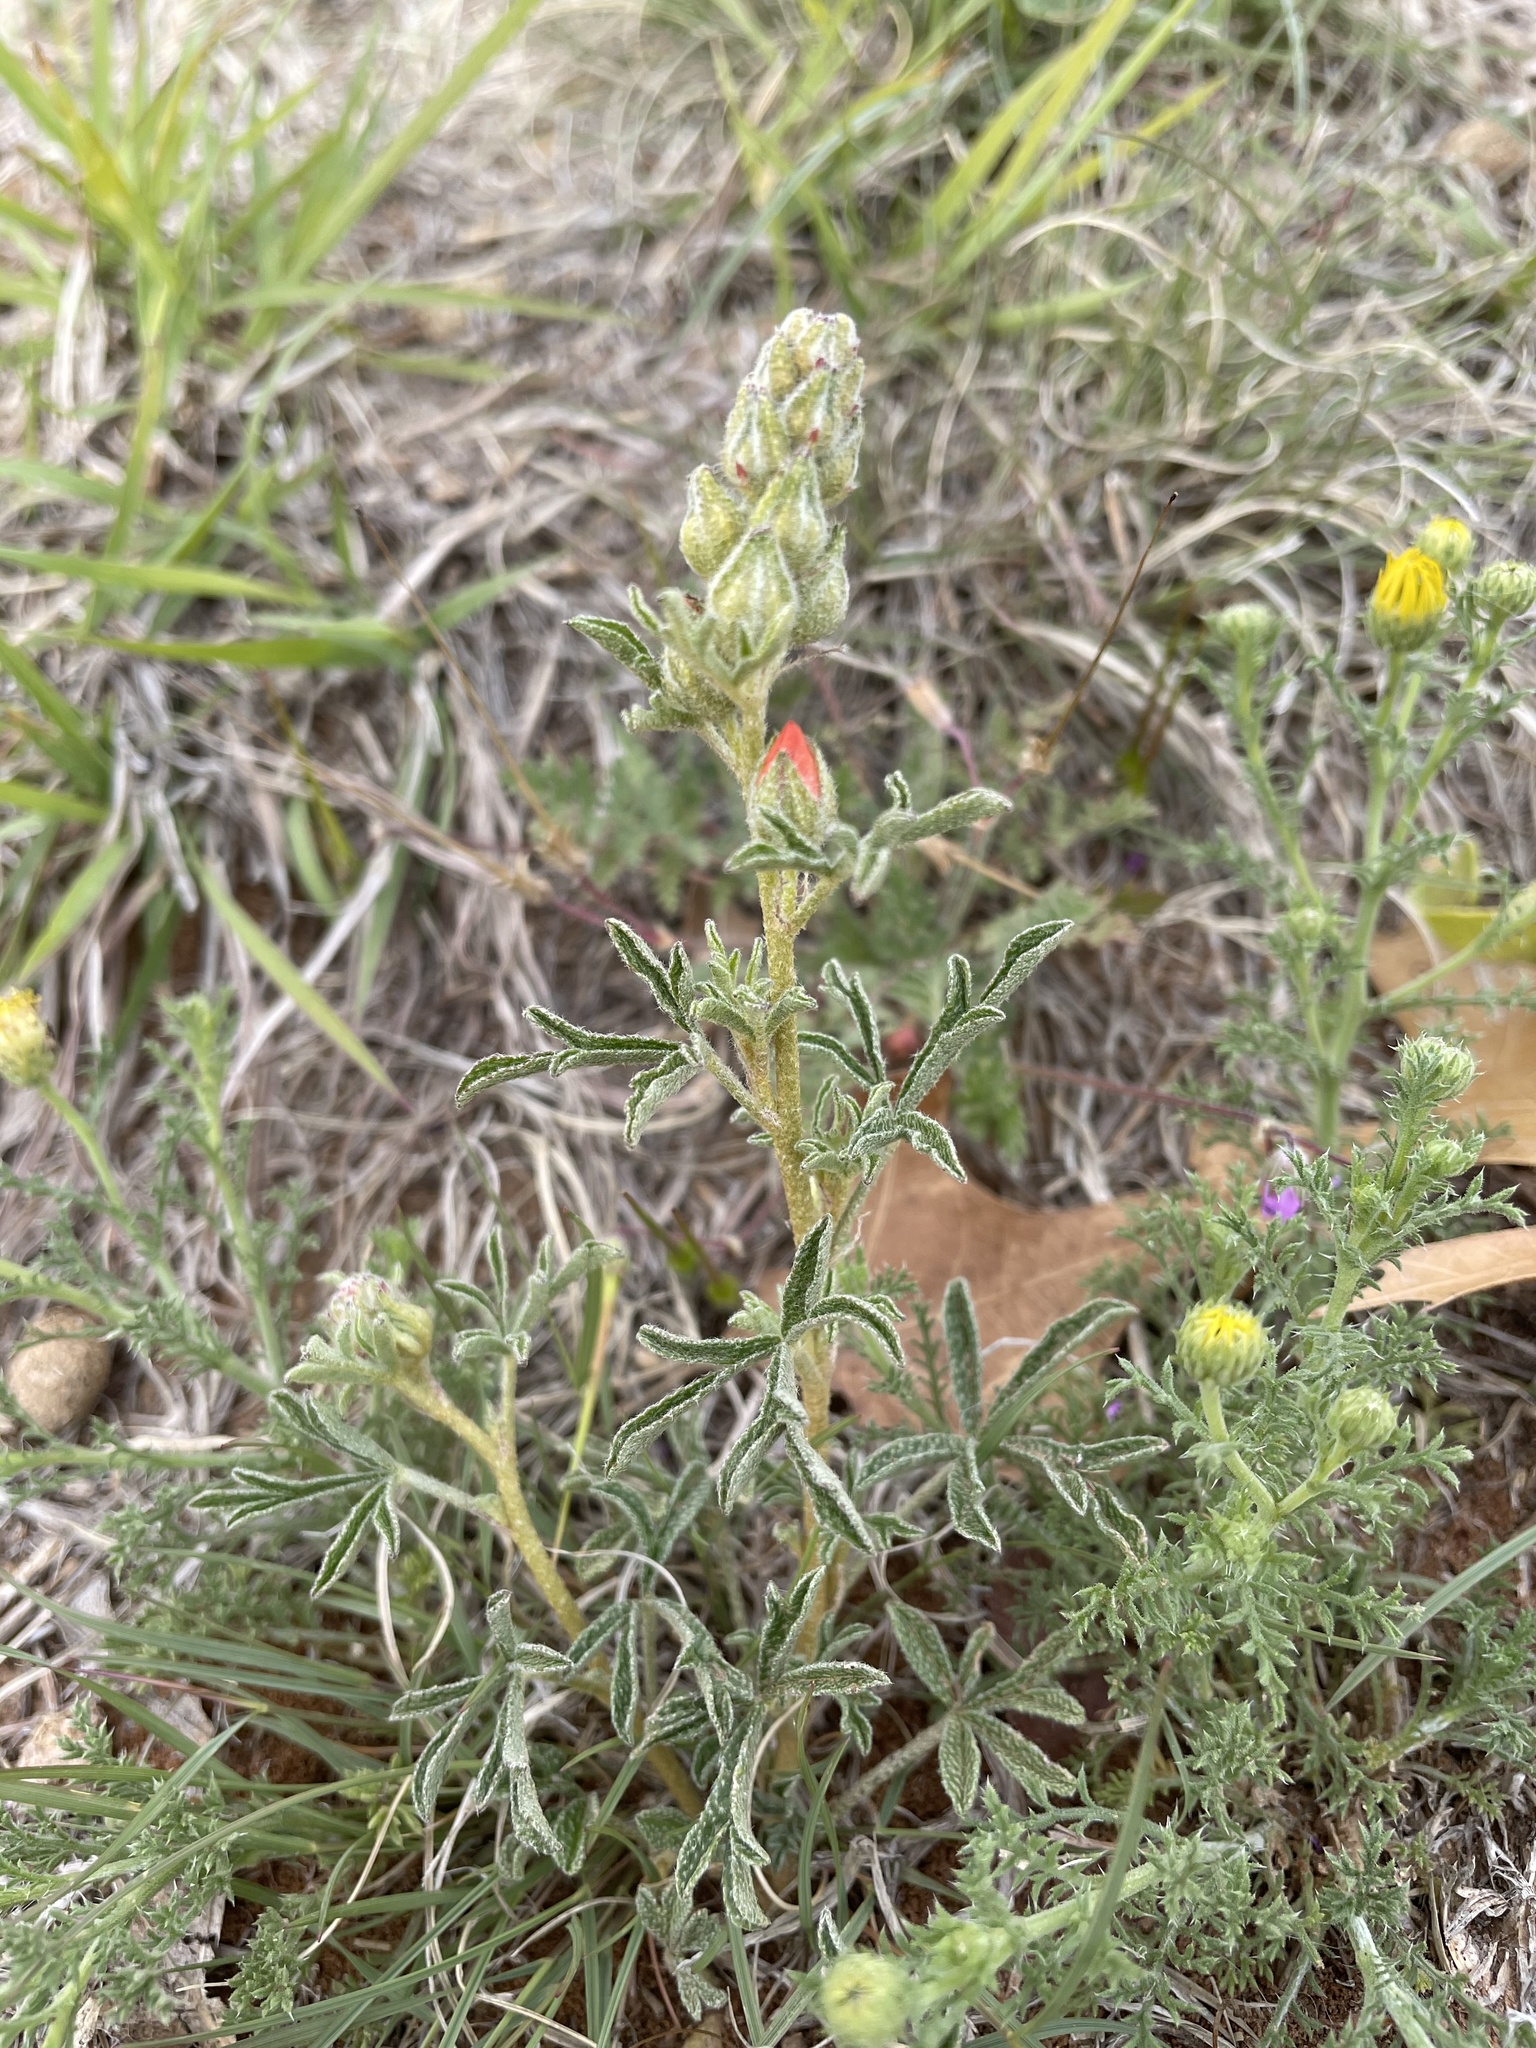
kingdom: Plantae
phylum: Tracheophyta
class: Magnoliopsida
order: Malvales
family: Malvaceae
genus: Sphaeralcea
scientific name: Sphaeralcea coccinea
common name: Moss-rose
